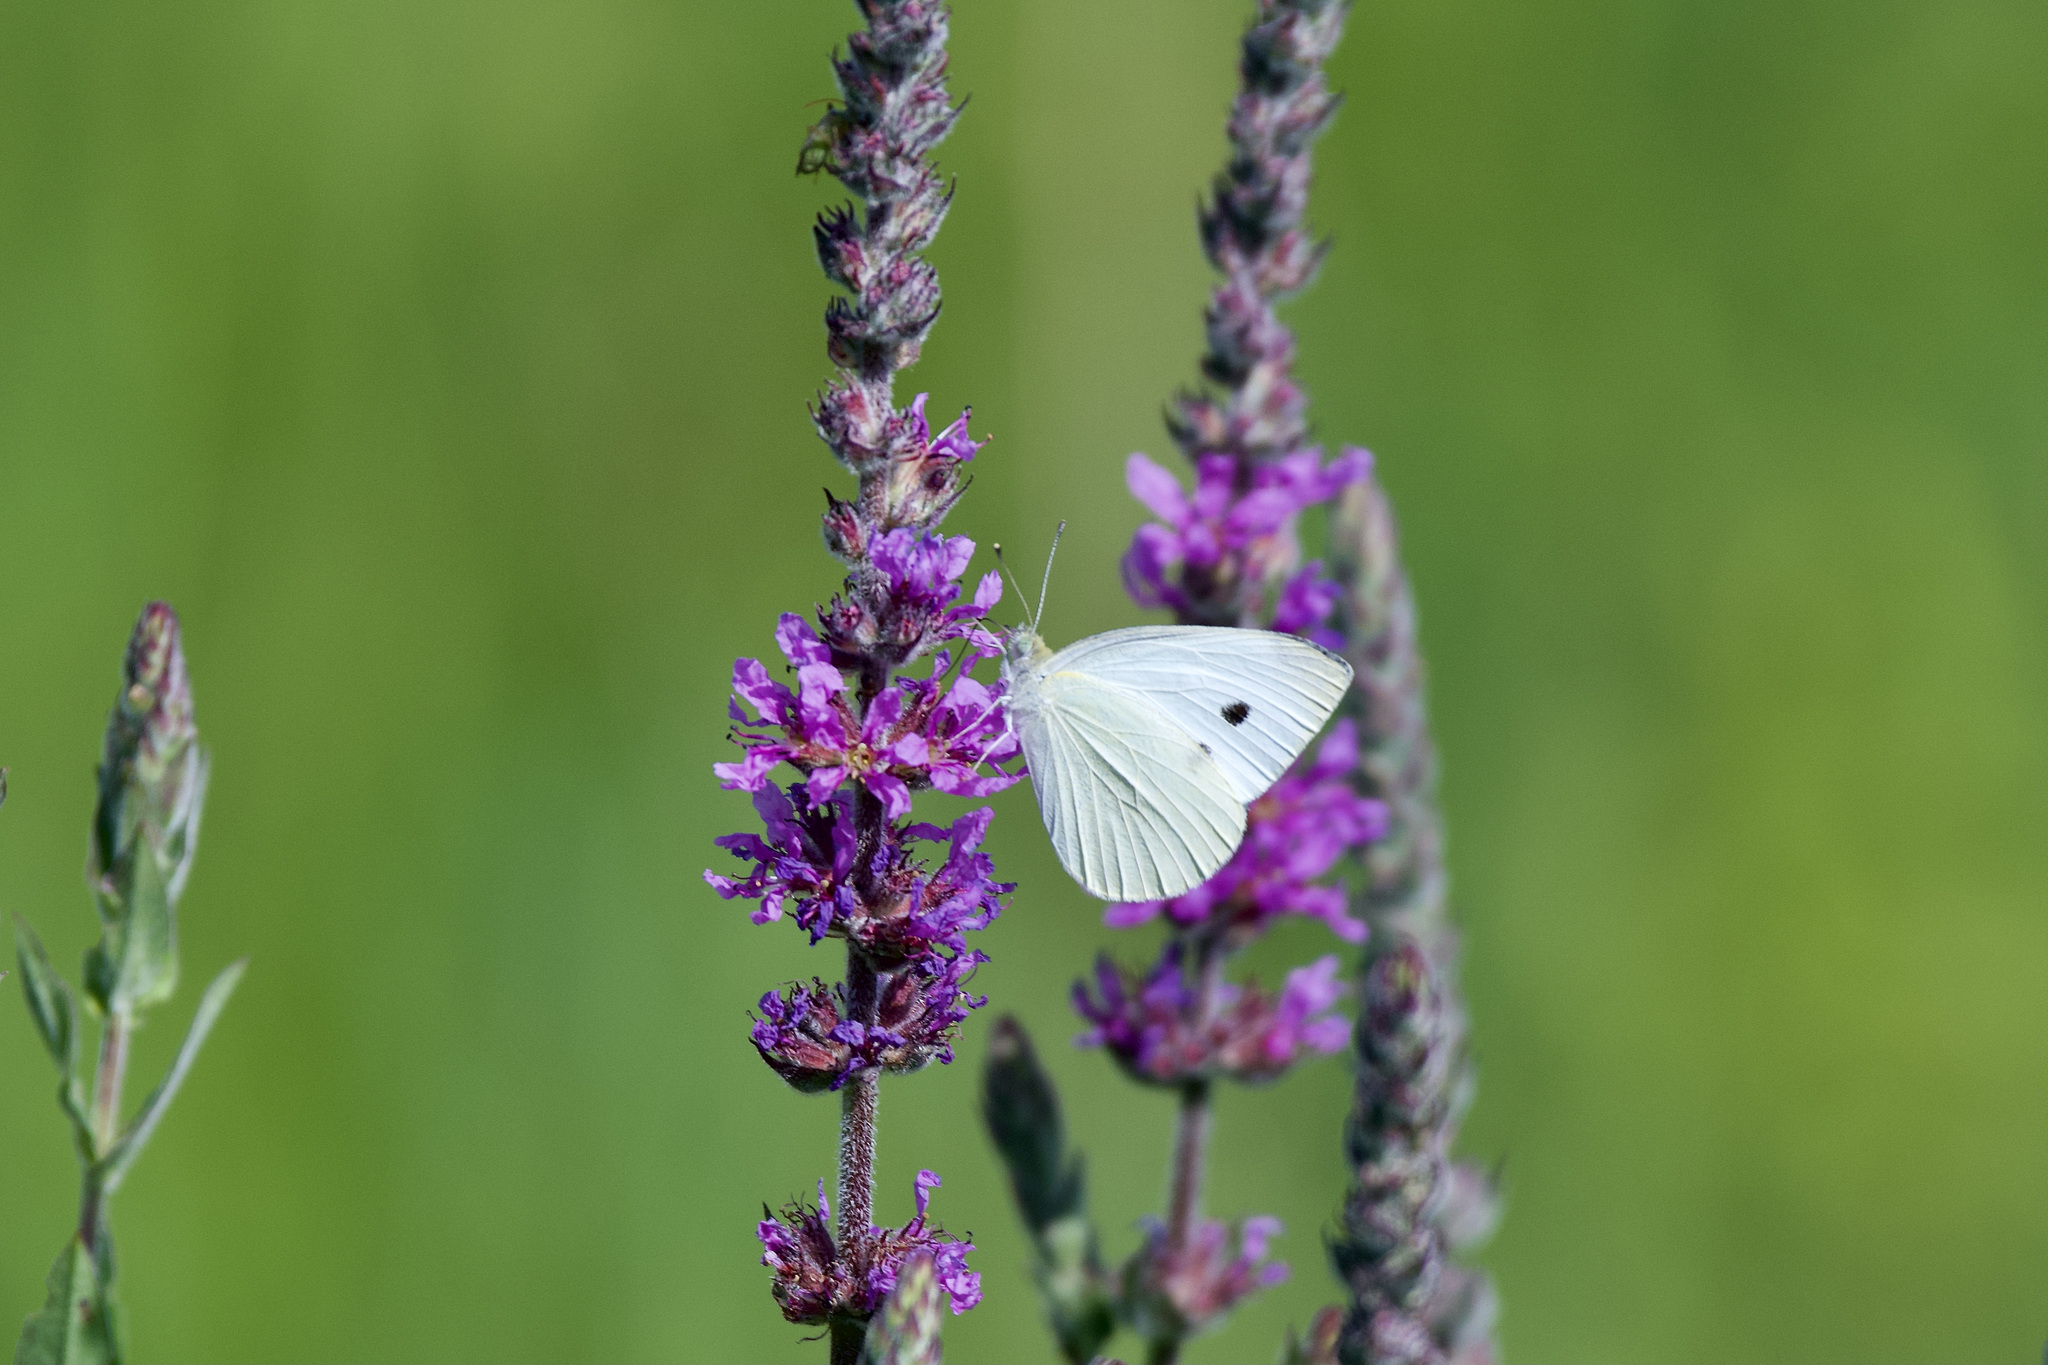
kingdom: Animalia
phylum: Arthropoda
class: Insecta
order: Lepidoptera
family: Pieridae
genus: Pieris
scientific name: Pieris rapae
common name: Small white
